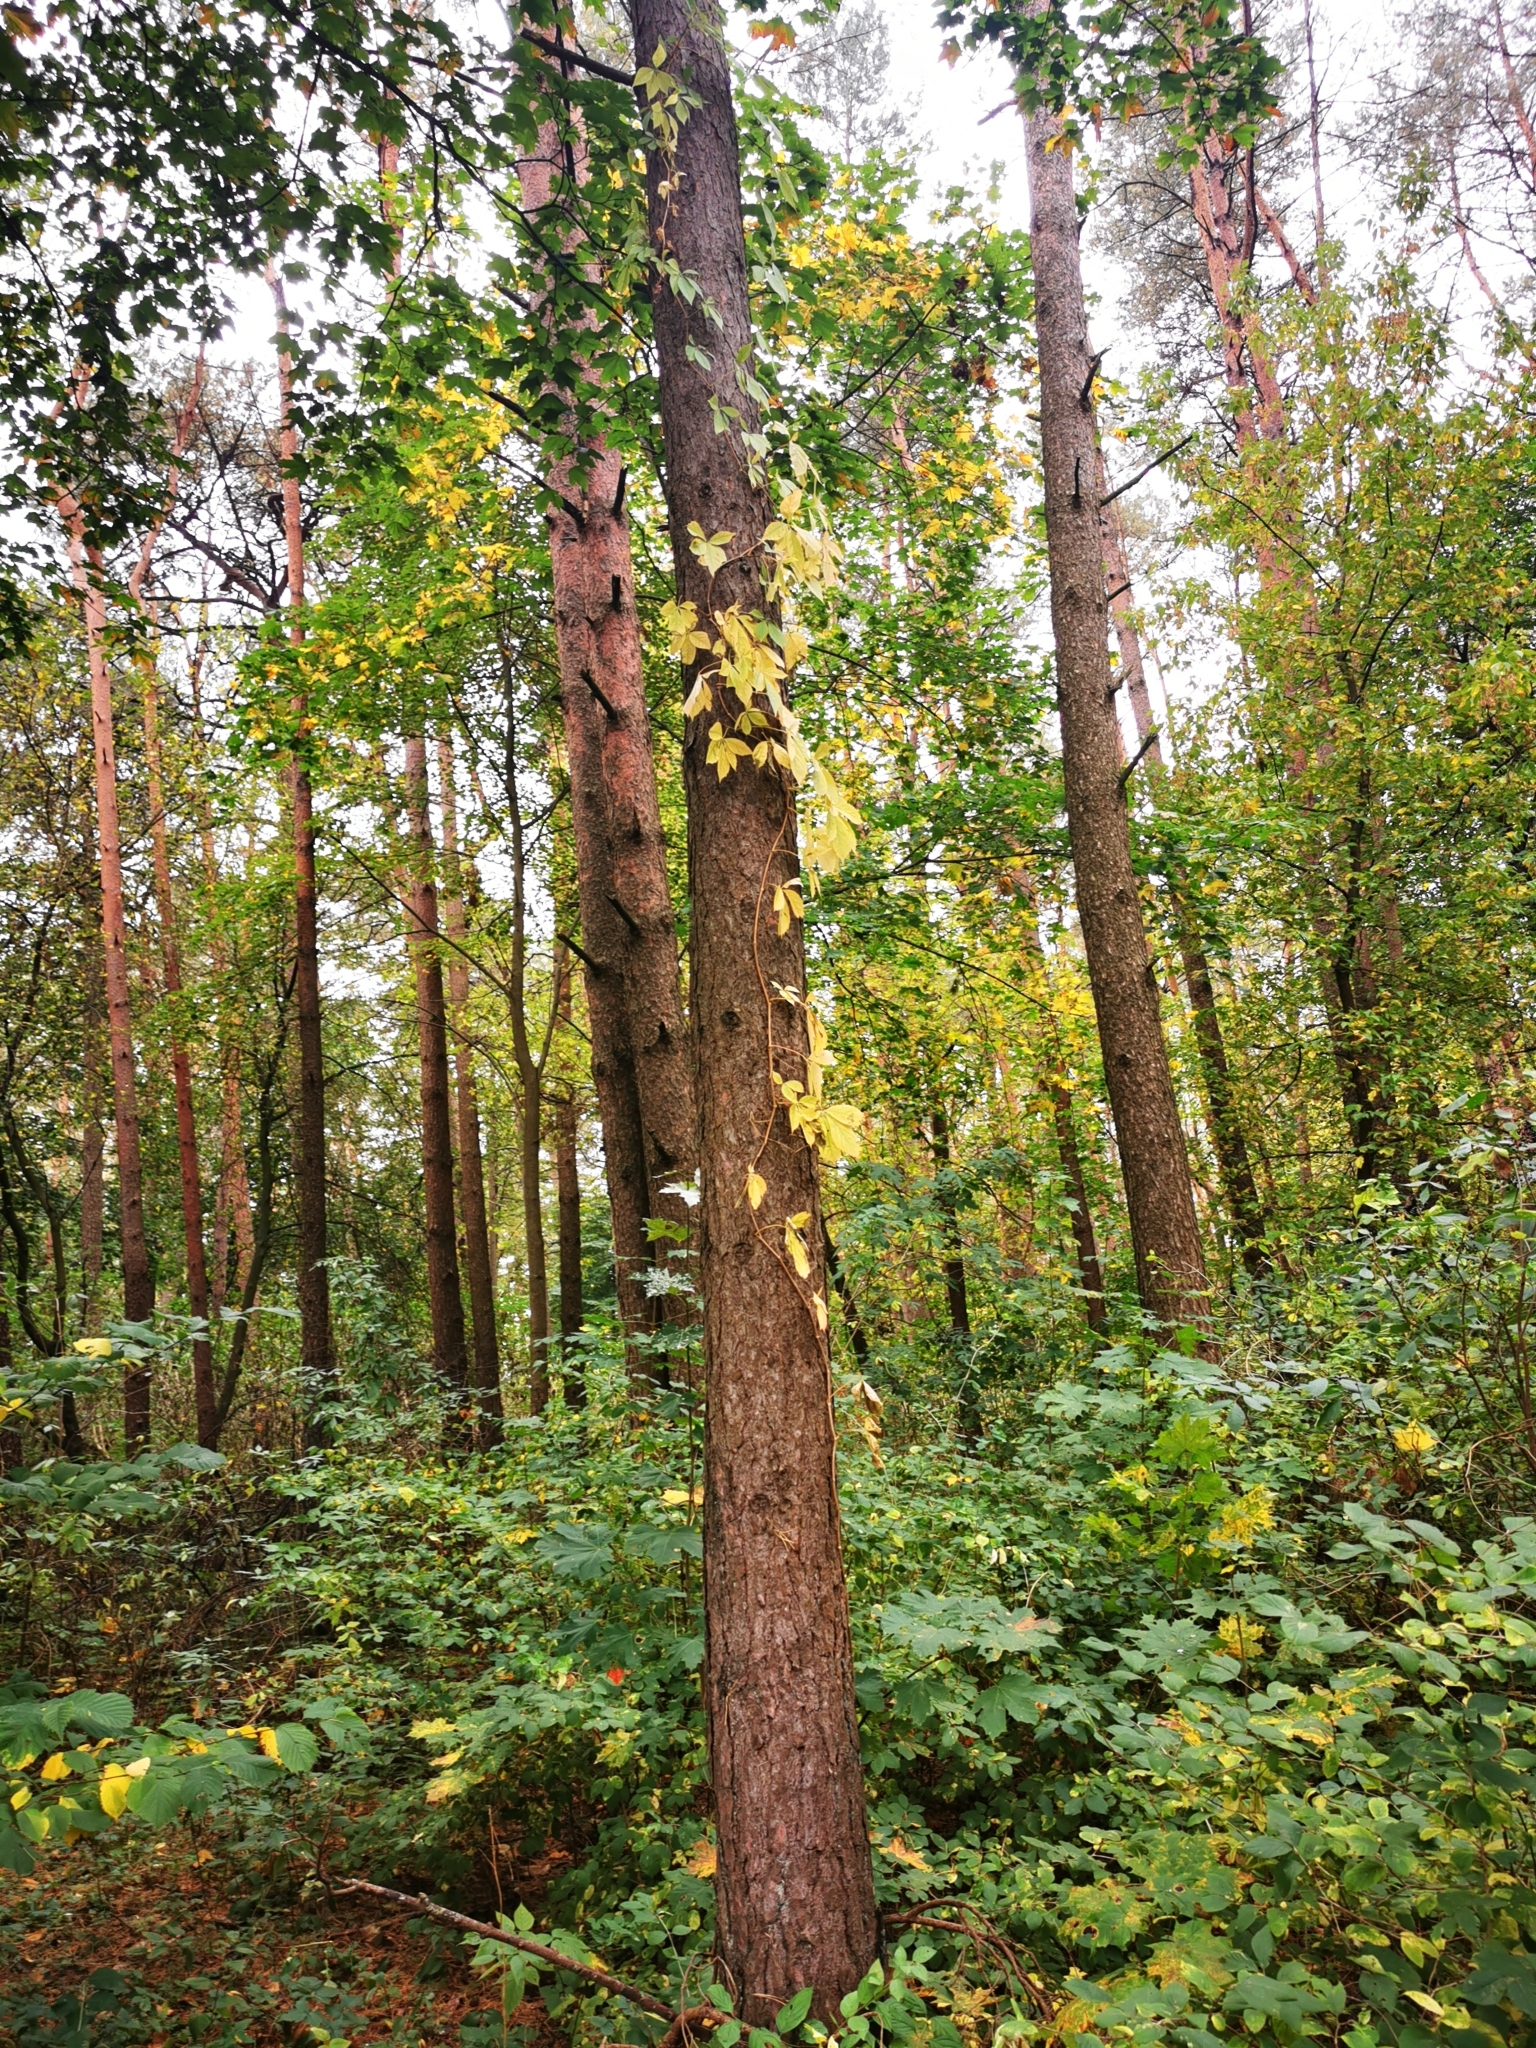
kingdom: Plantae
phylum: Tracheophyta
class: Magnoliopsida
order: Vitales
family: Vitaceae
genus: Parthenocissus
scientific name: Parthenocissus quinquefolia
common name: Virginia-creeper
